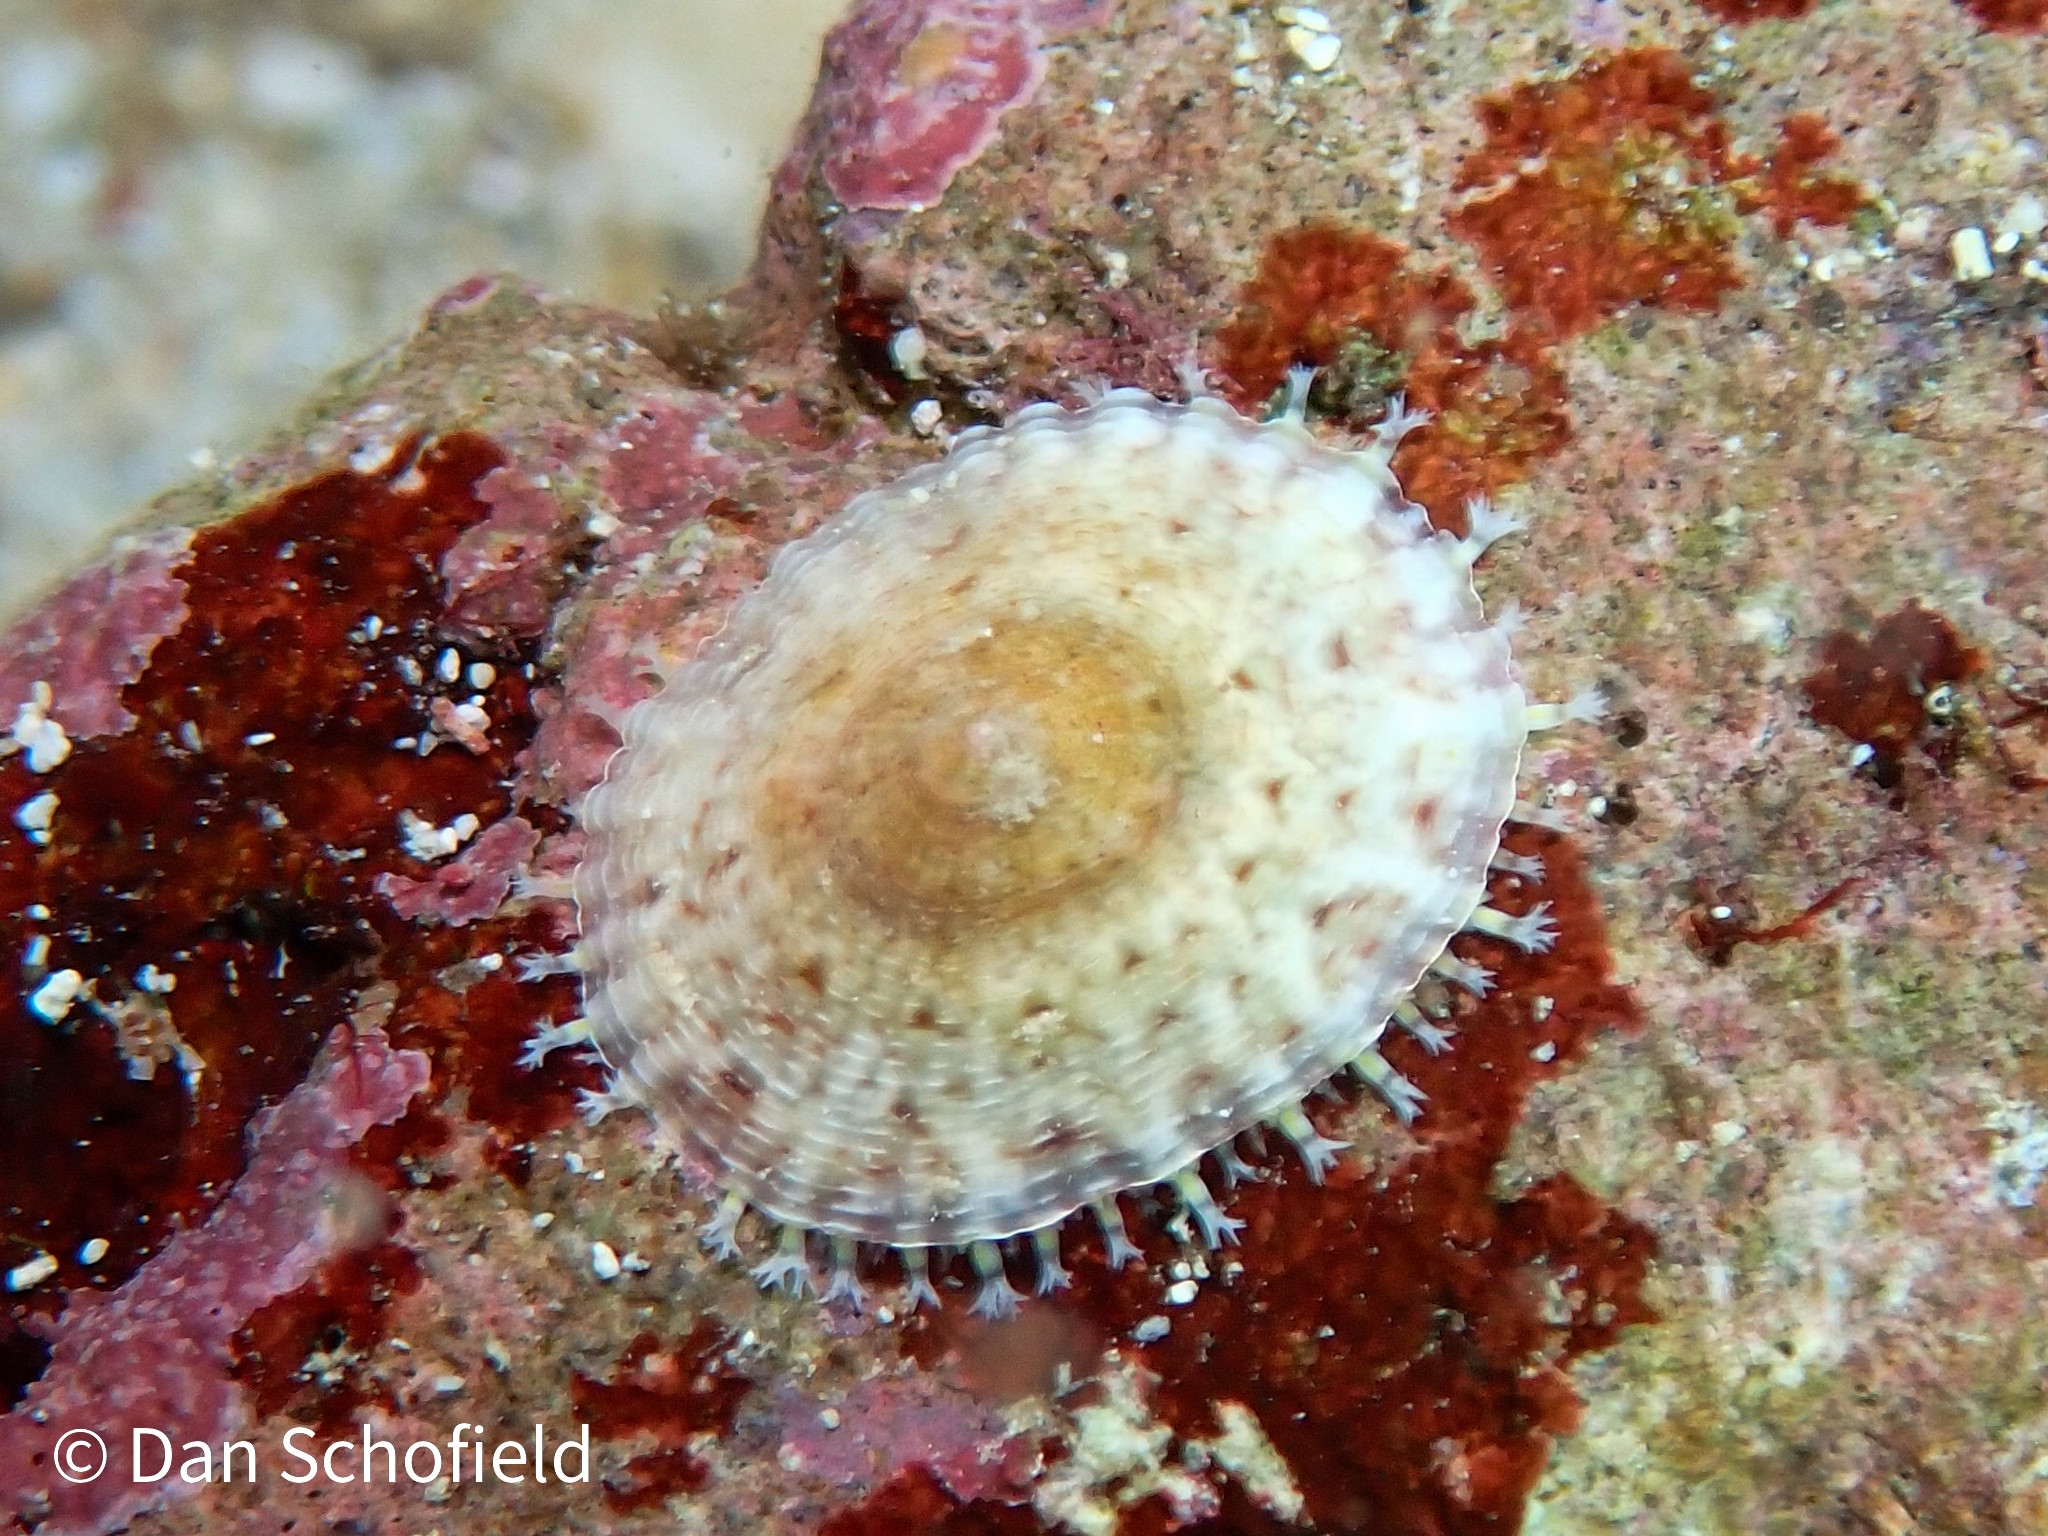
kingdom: Animalia
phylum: Mollusca
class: Gastropoda
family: Eoacmaeidae
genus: Eoacmaea
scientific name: Eoacmaea pustulata
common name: Spotted limpet
